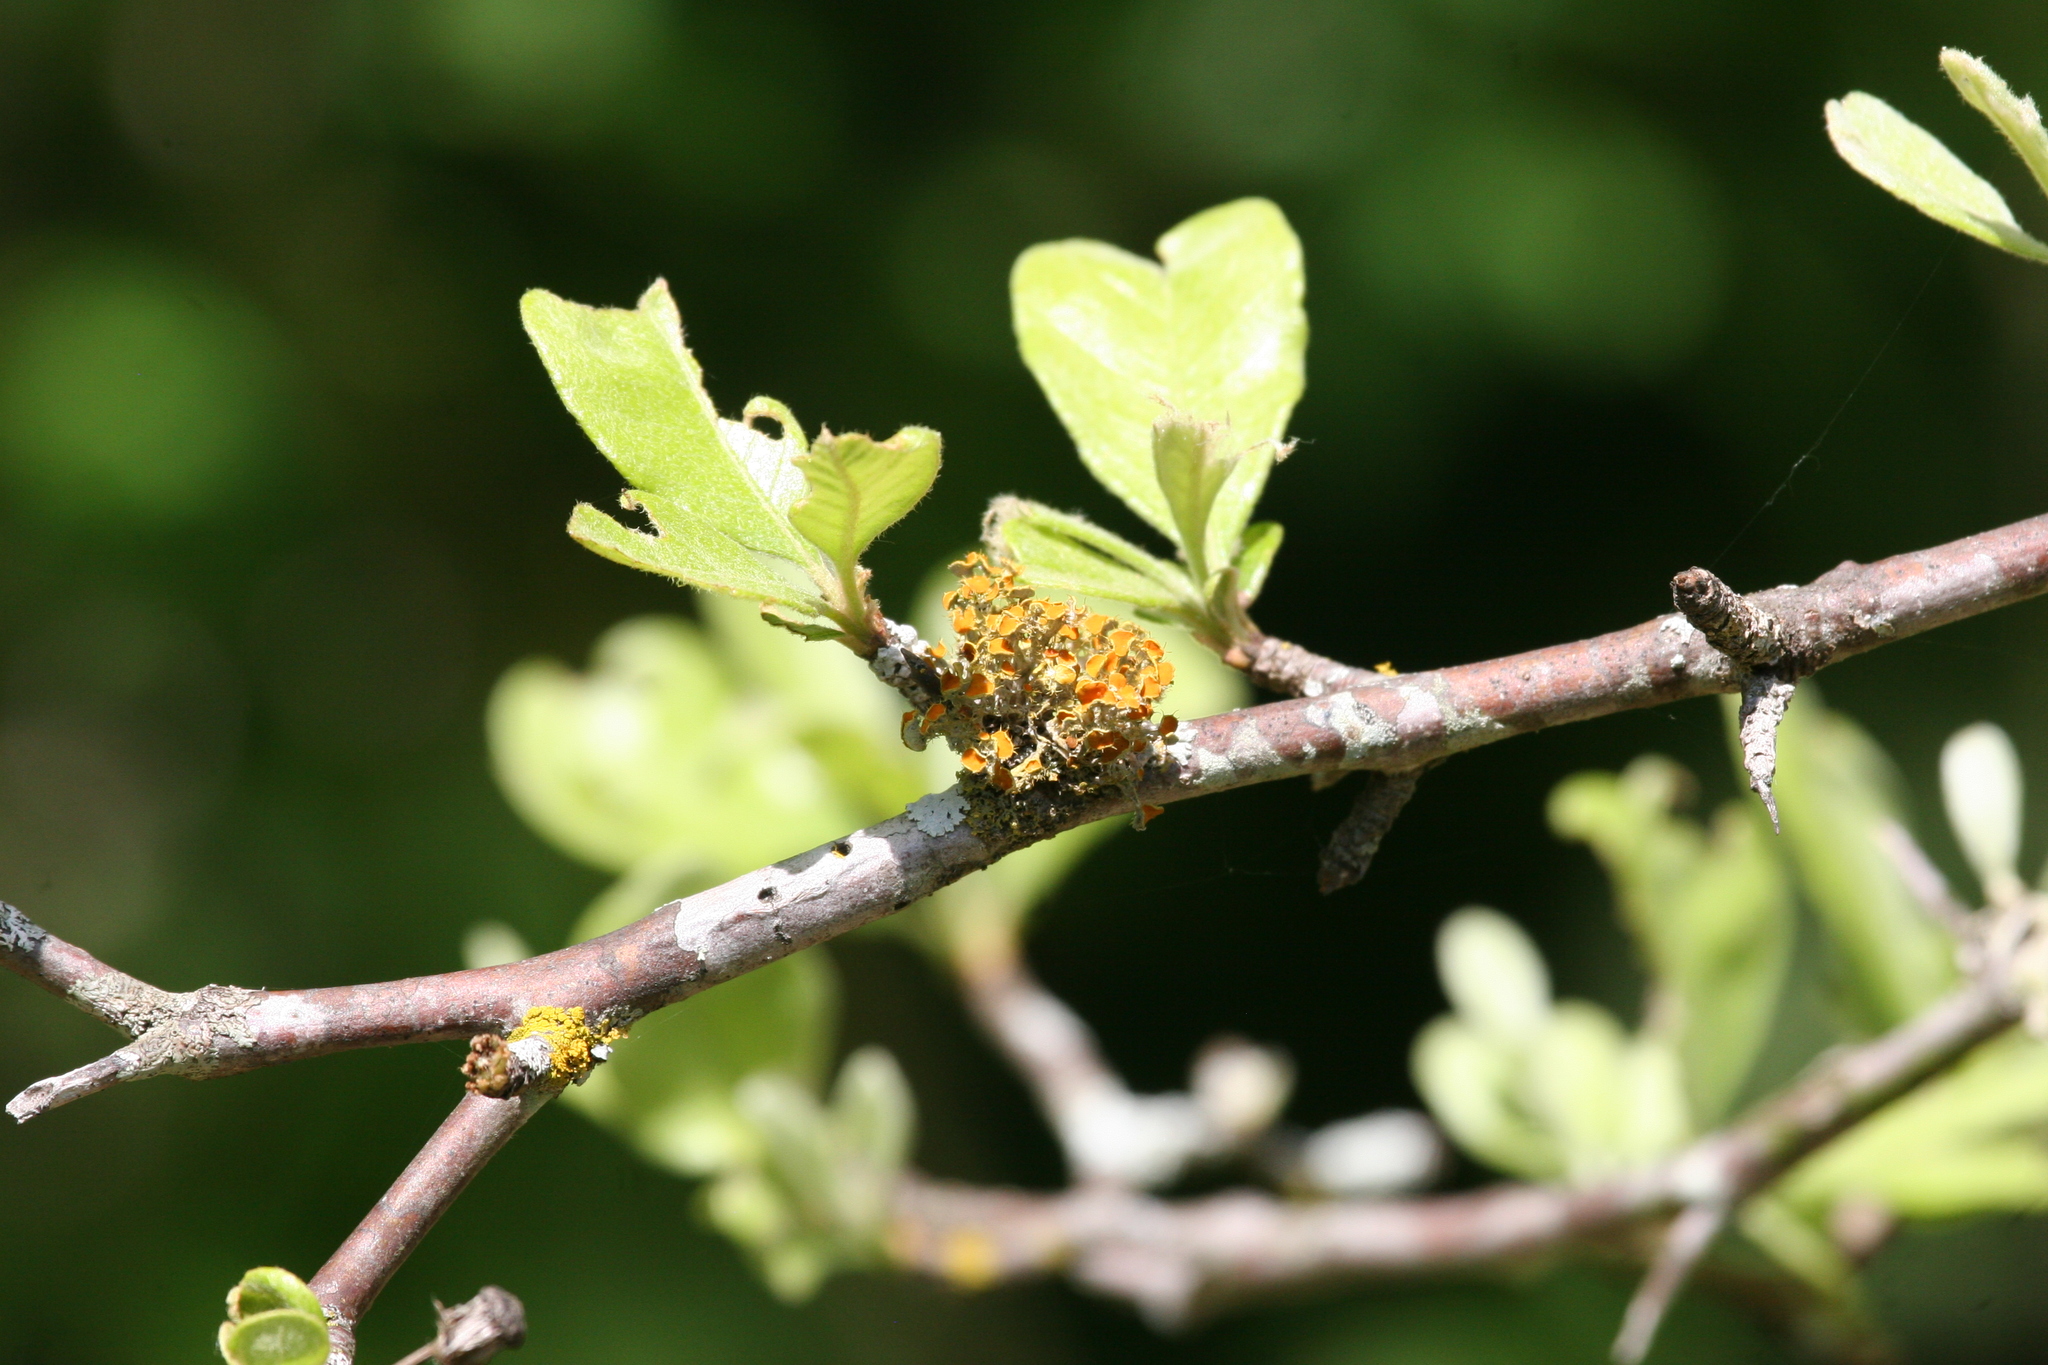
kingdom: Fungi
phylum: Ascomycota
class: Lecanoromycetes
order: Teloschistales
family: Teloschistaceae
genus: Niorma
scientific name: Niorma chrysophthalma
